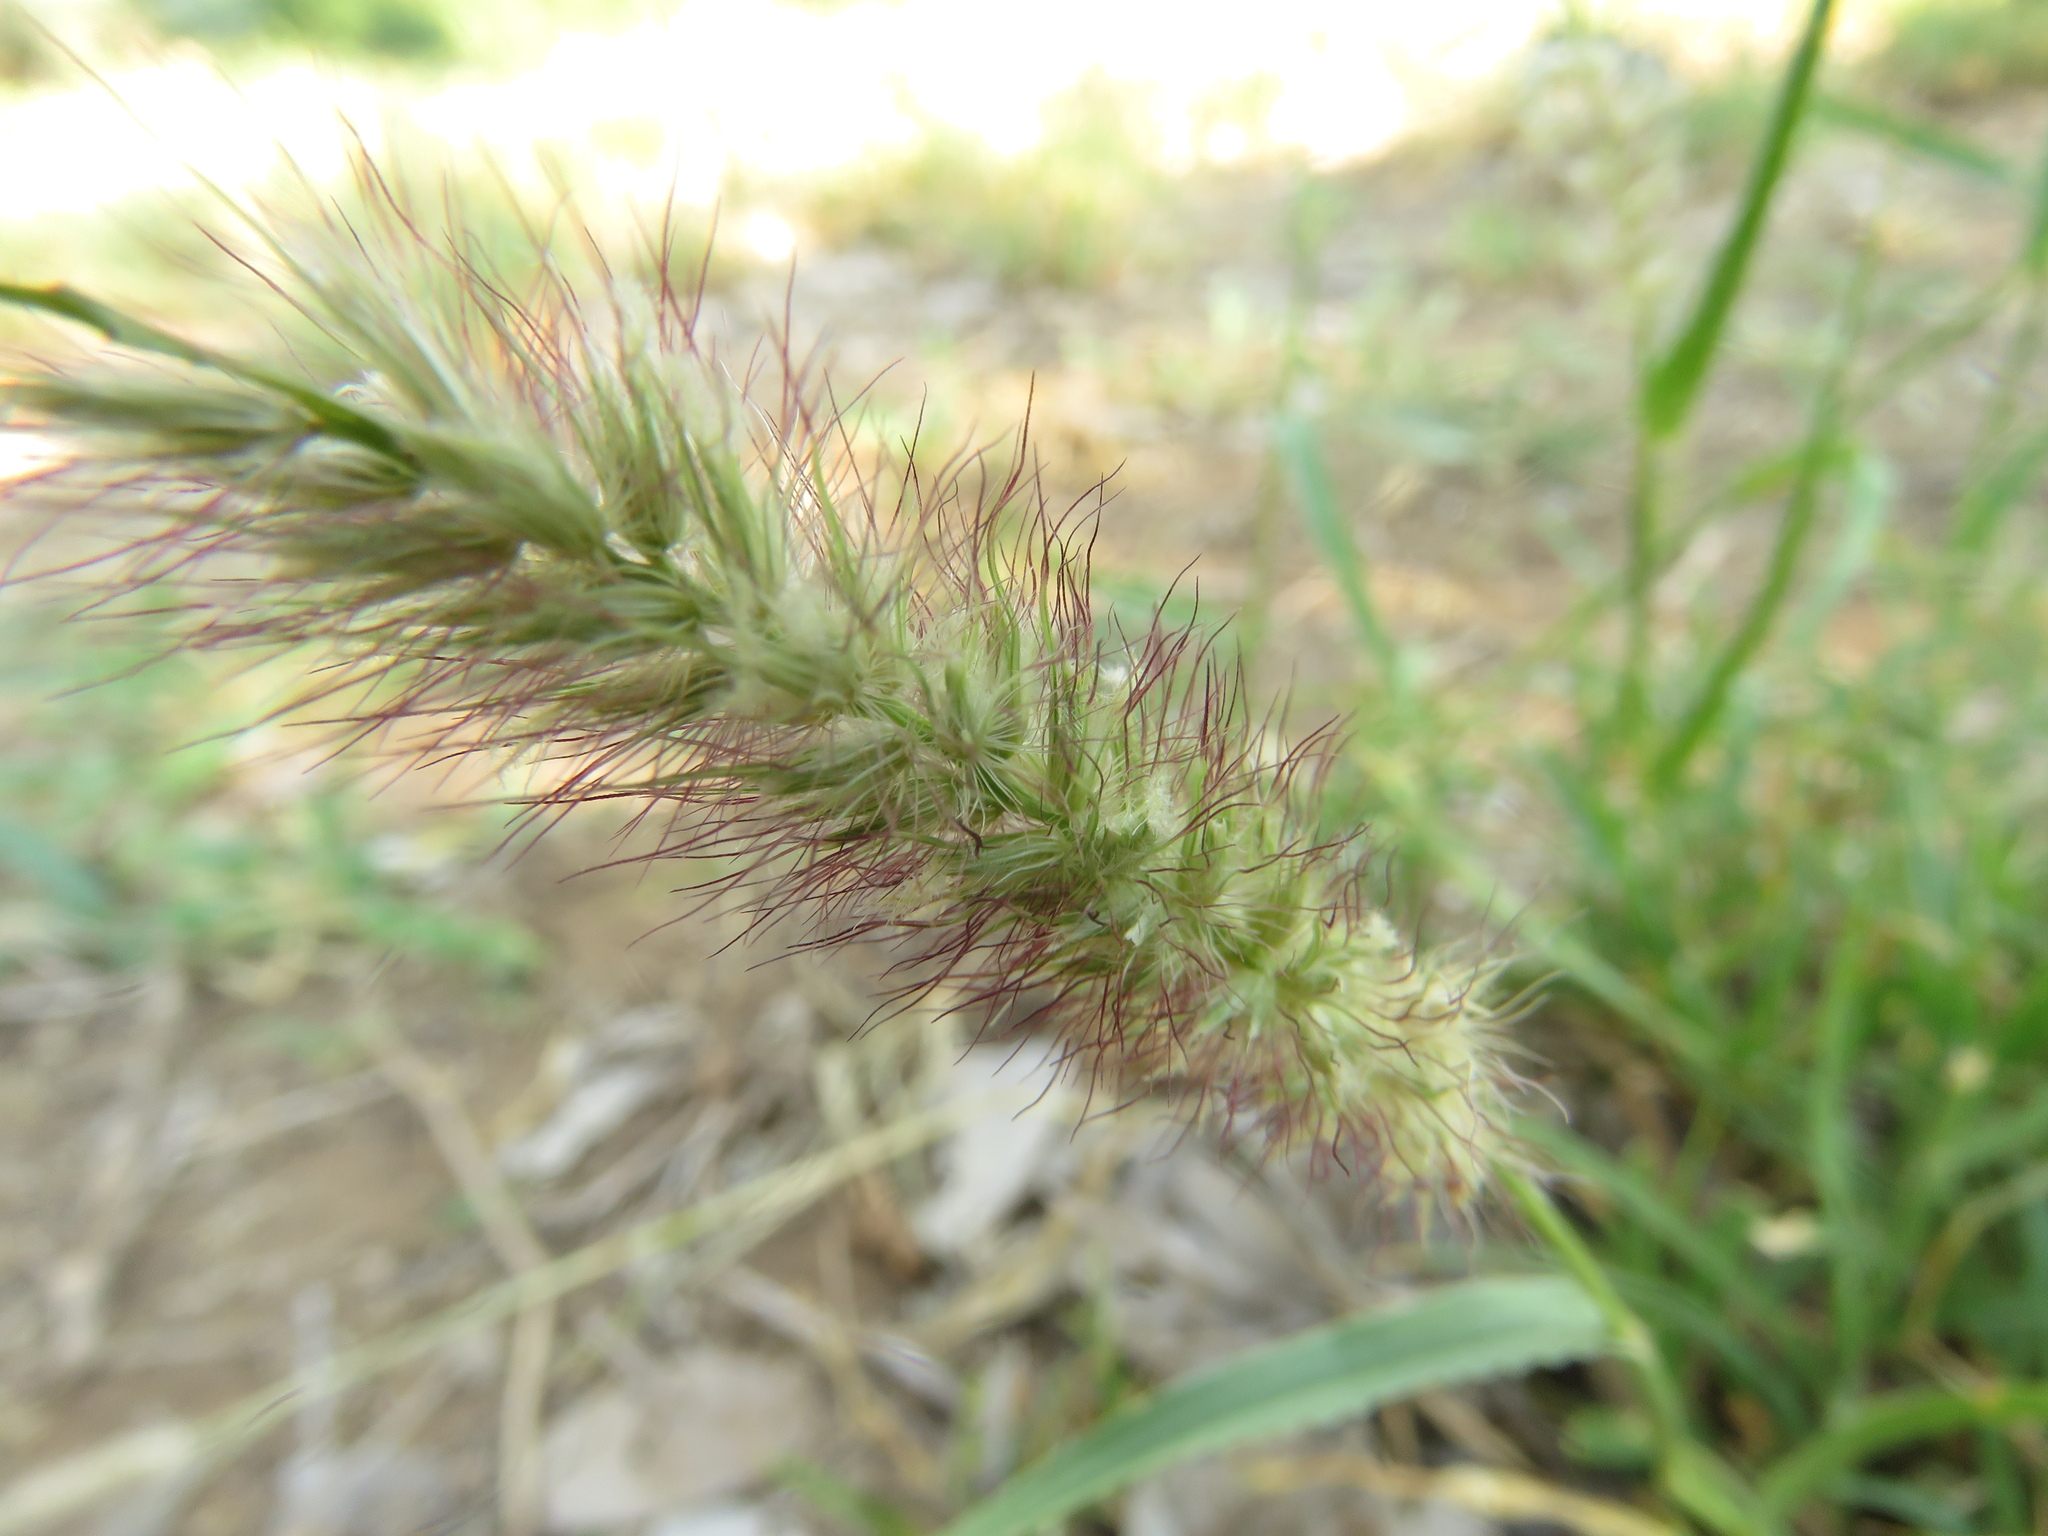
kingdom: Plantae
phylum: Tracheophyta
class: Liliopsida
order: Poales
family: Poaceae
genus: Cenchrus
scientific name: Cenchrus ciliaris
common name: Buffelgrass
